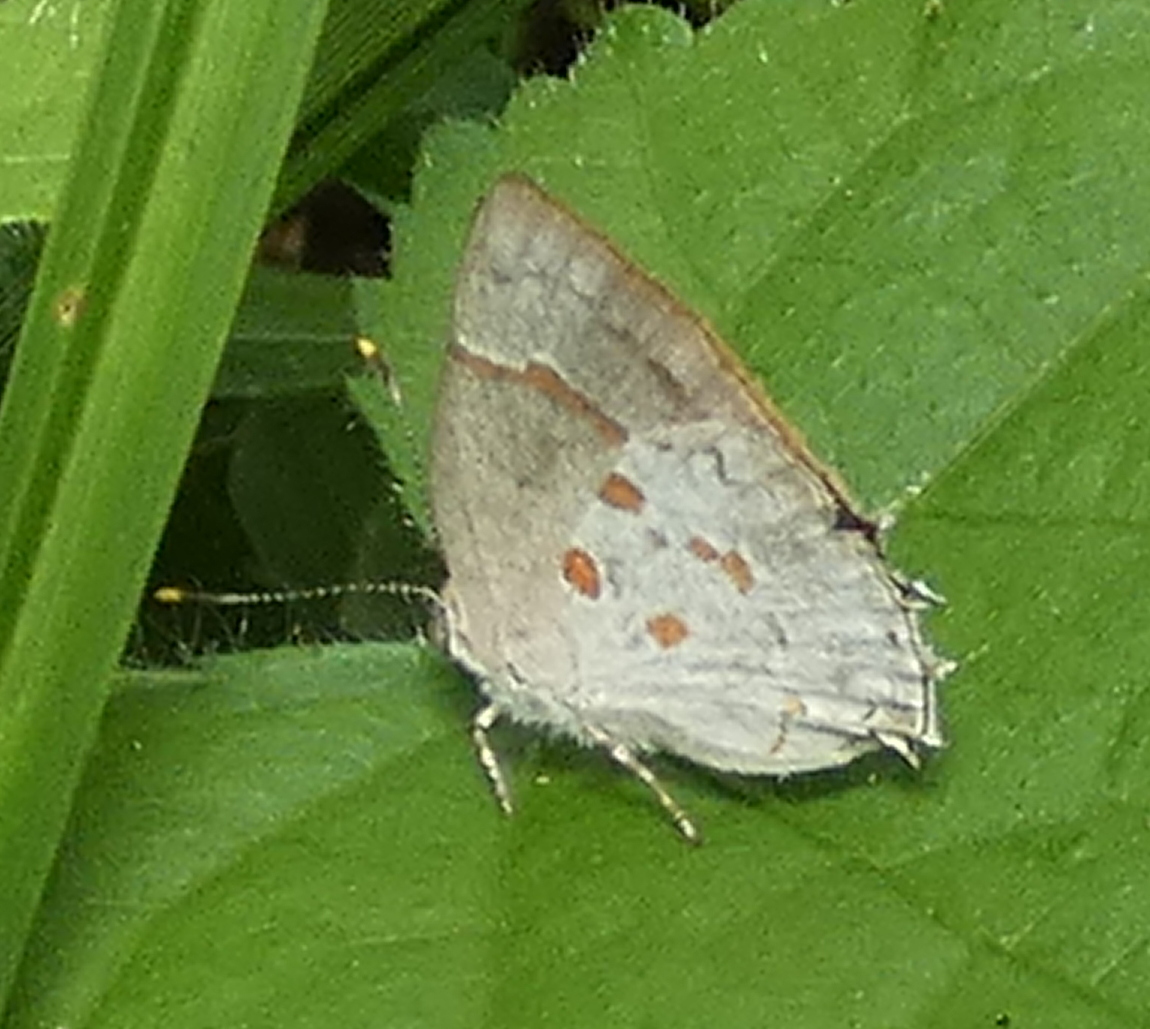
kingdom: Animalia
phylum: Arthropoda
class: Insecta
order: Lepidoptera
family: Lycaenidae
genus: Tmolus
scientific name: Tmolus echion
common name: Red-spotted hairstreak
